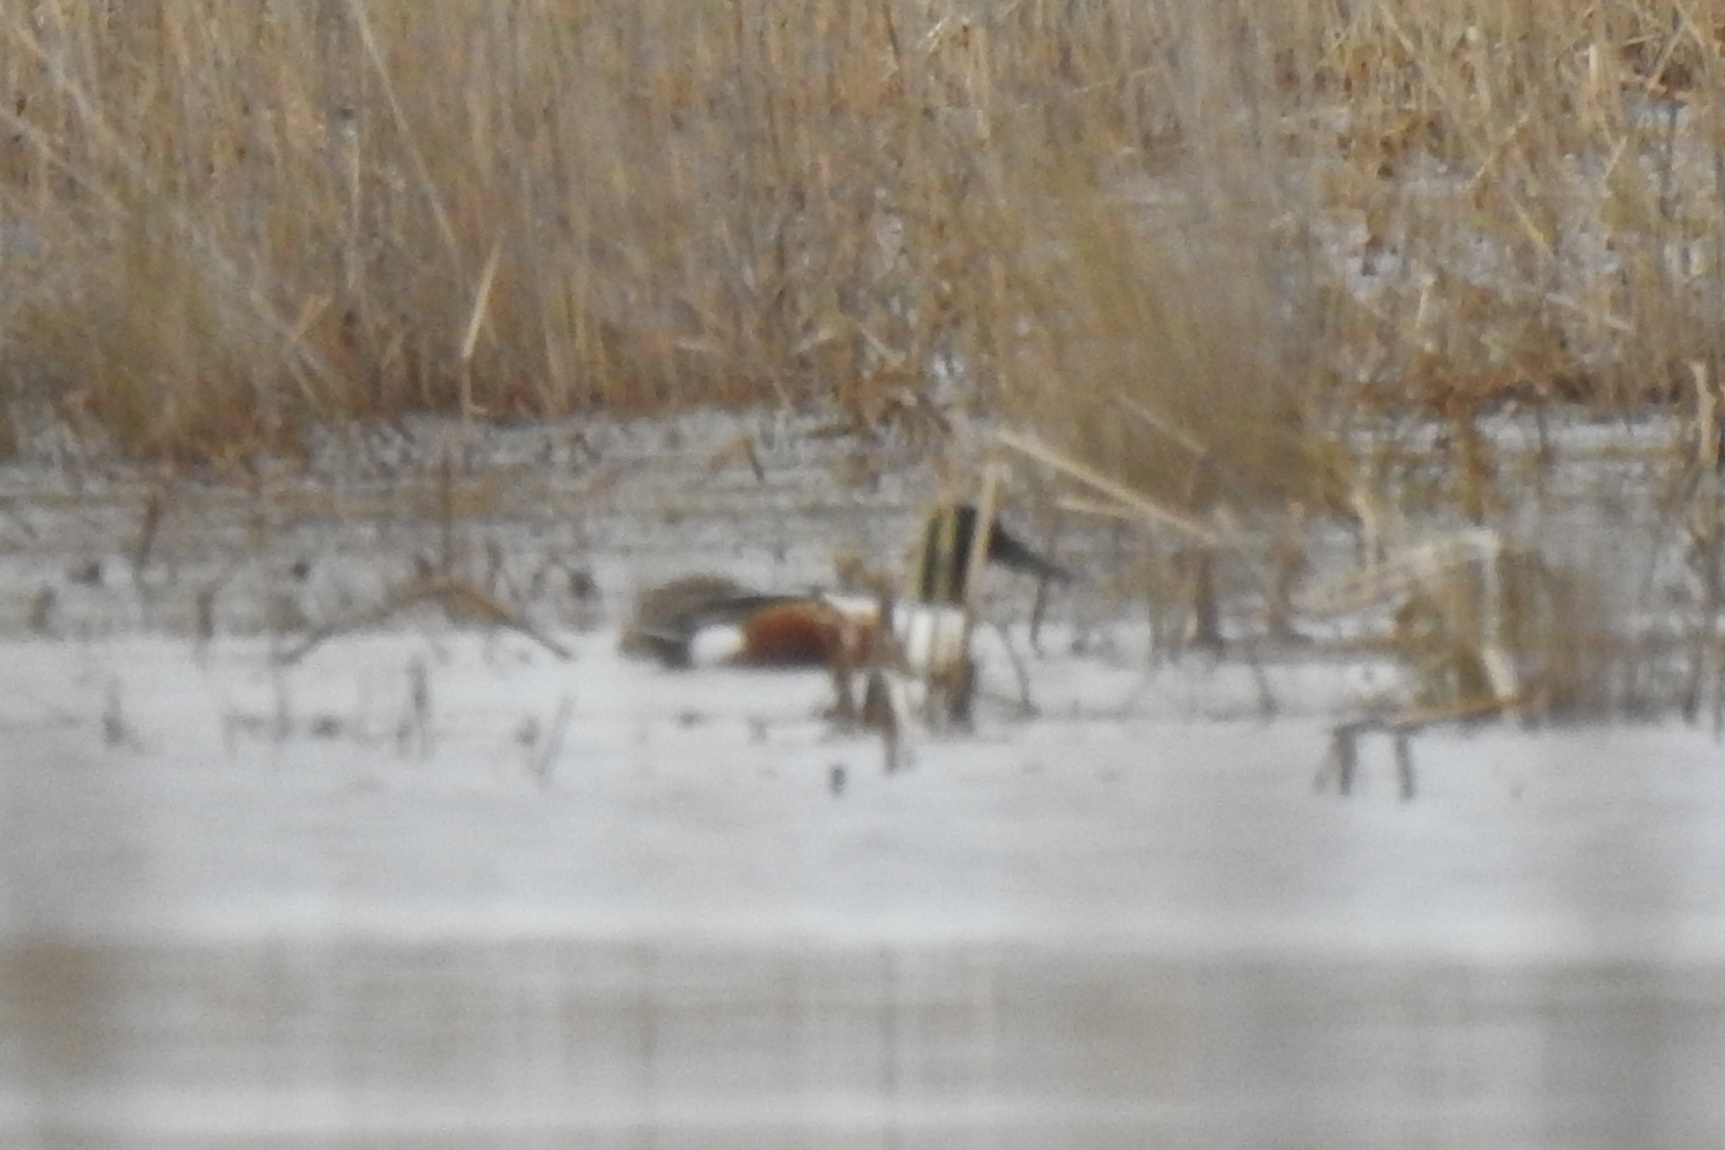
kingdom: Animalia
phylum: Chordata
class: Aves
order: Anseriformes
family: Anatidae
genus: Spatula
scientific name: Spatula clypeata
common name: Northern shoveler
